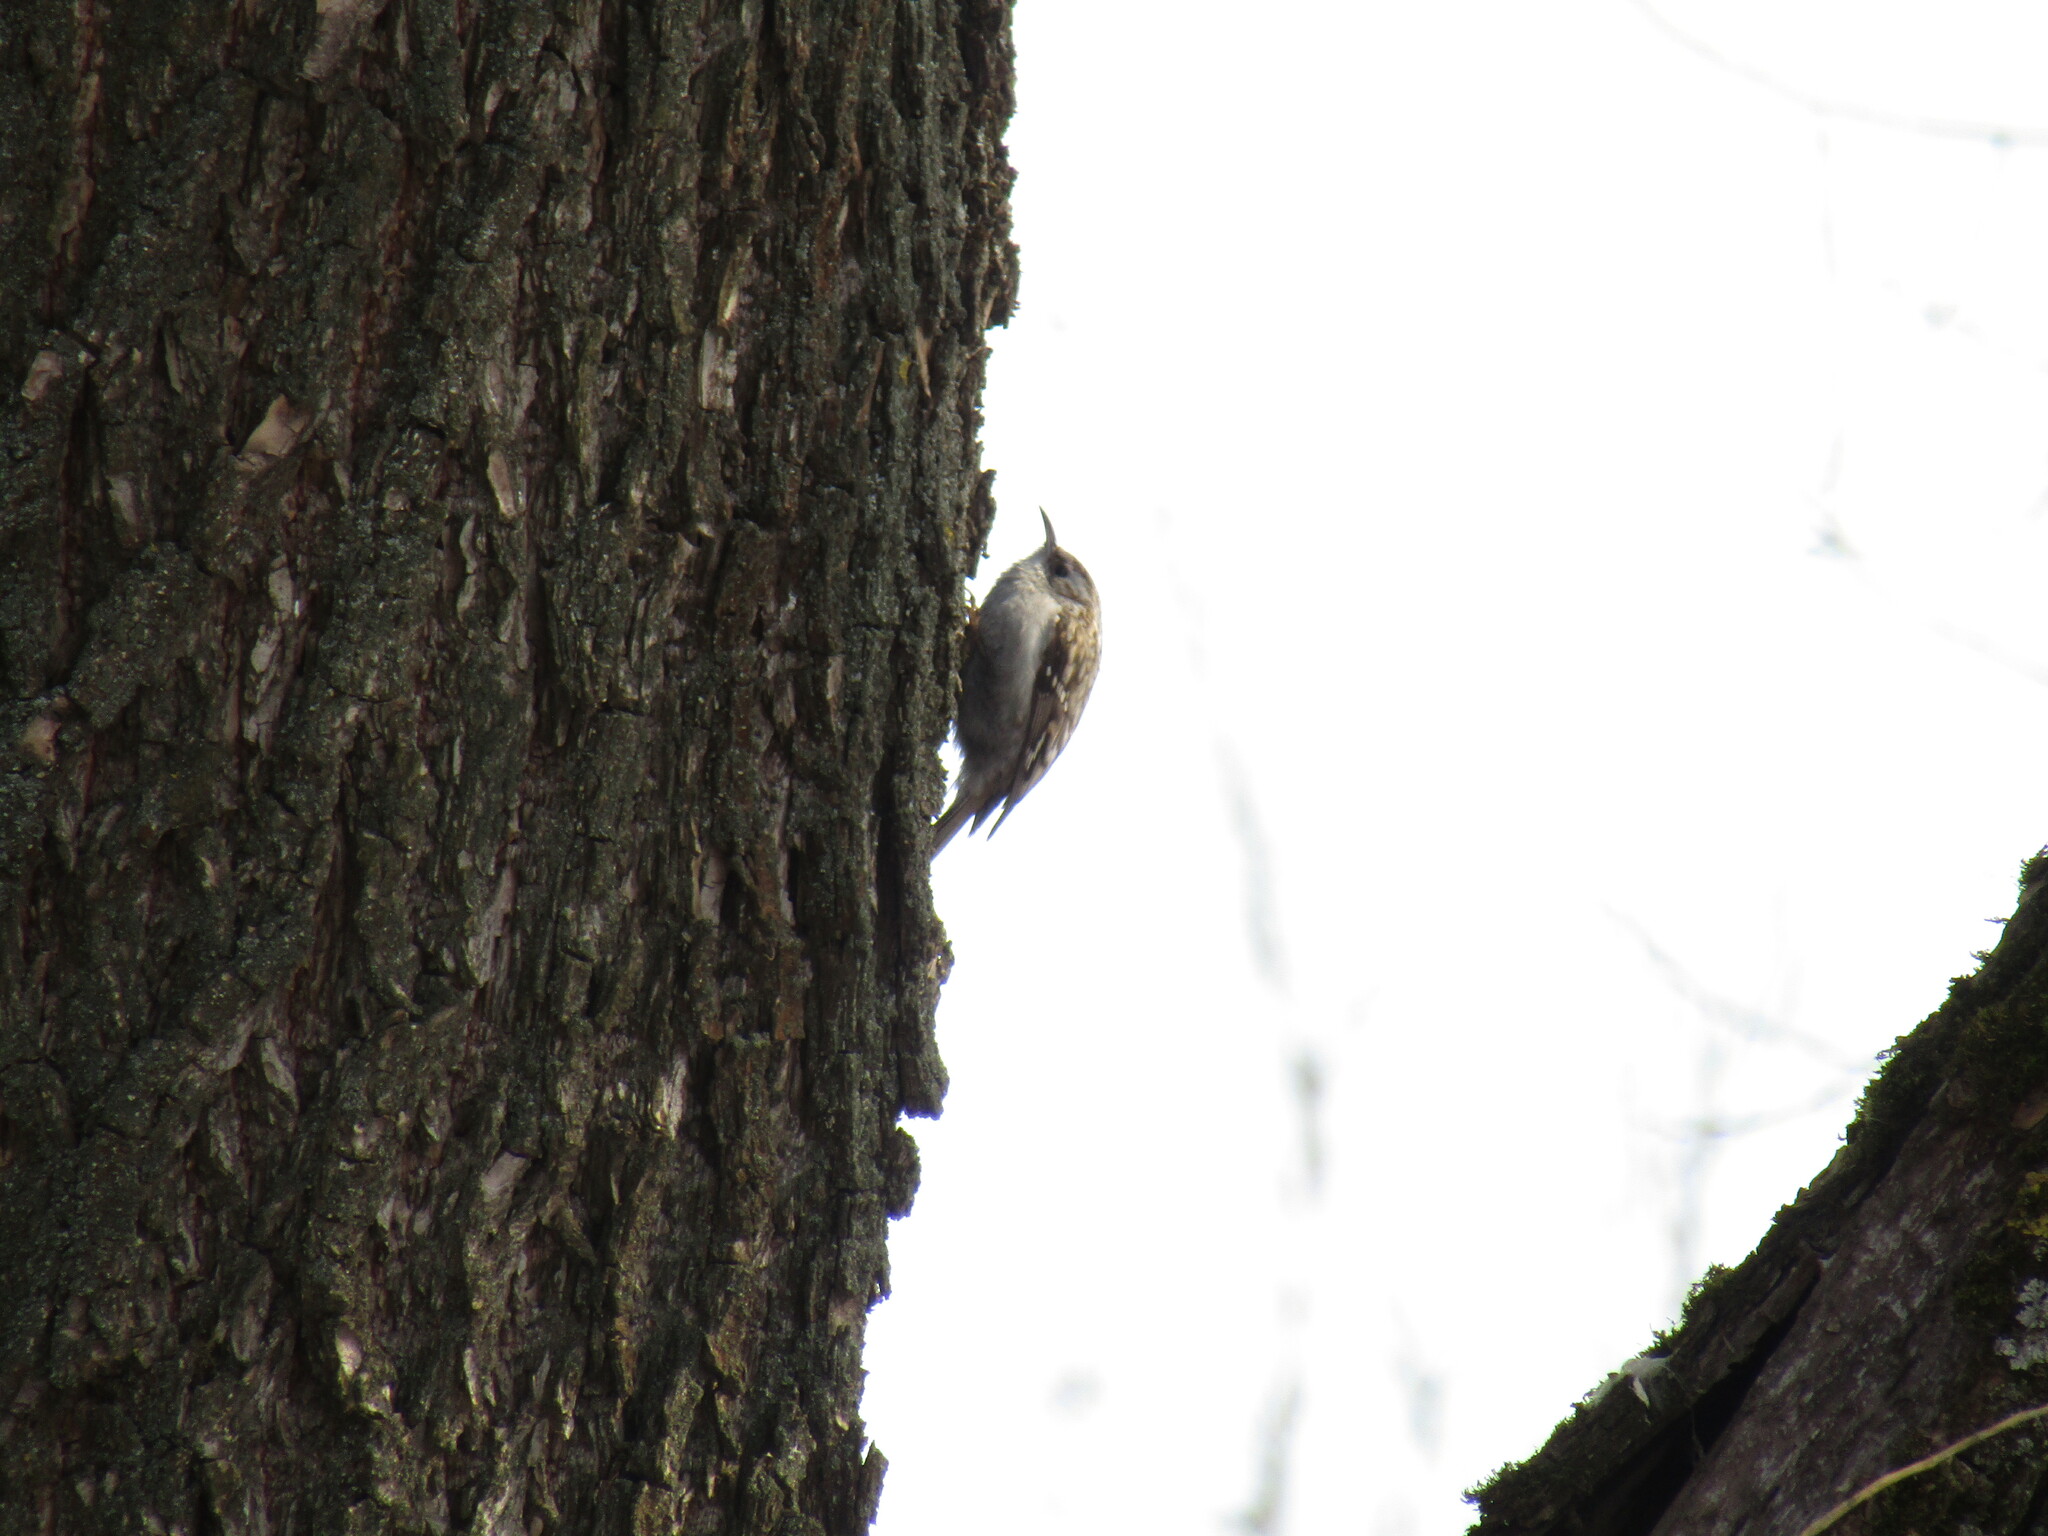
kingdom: Animalia
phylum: Chordata
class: Aves
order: Passeriformes
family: Certhiidae
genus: Certhia
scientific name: Certhia familiaris
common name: Eurasian treecreeper
